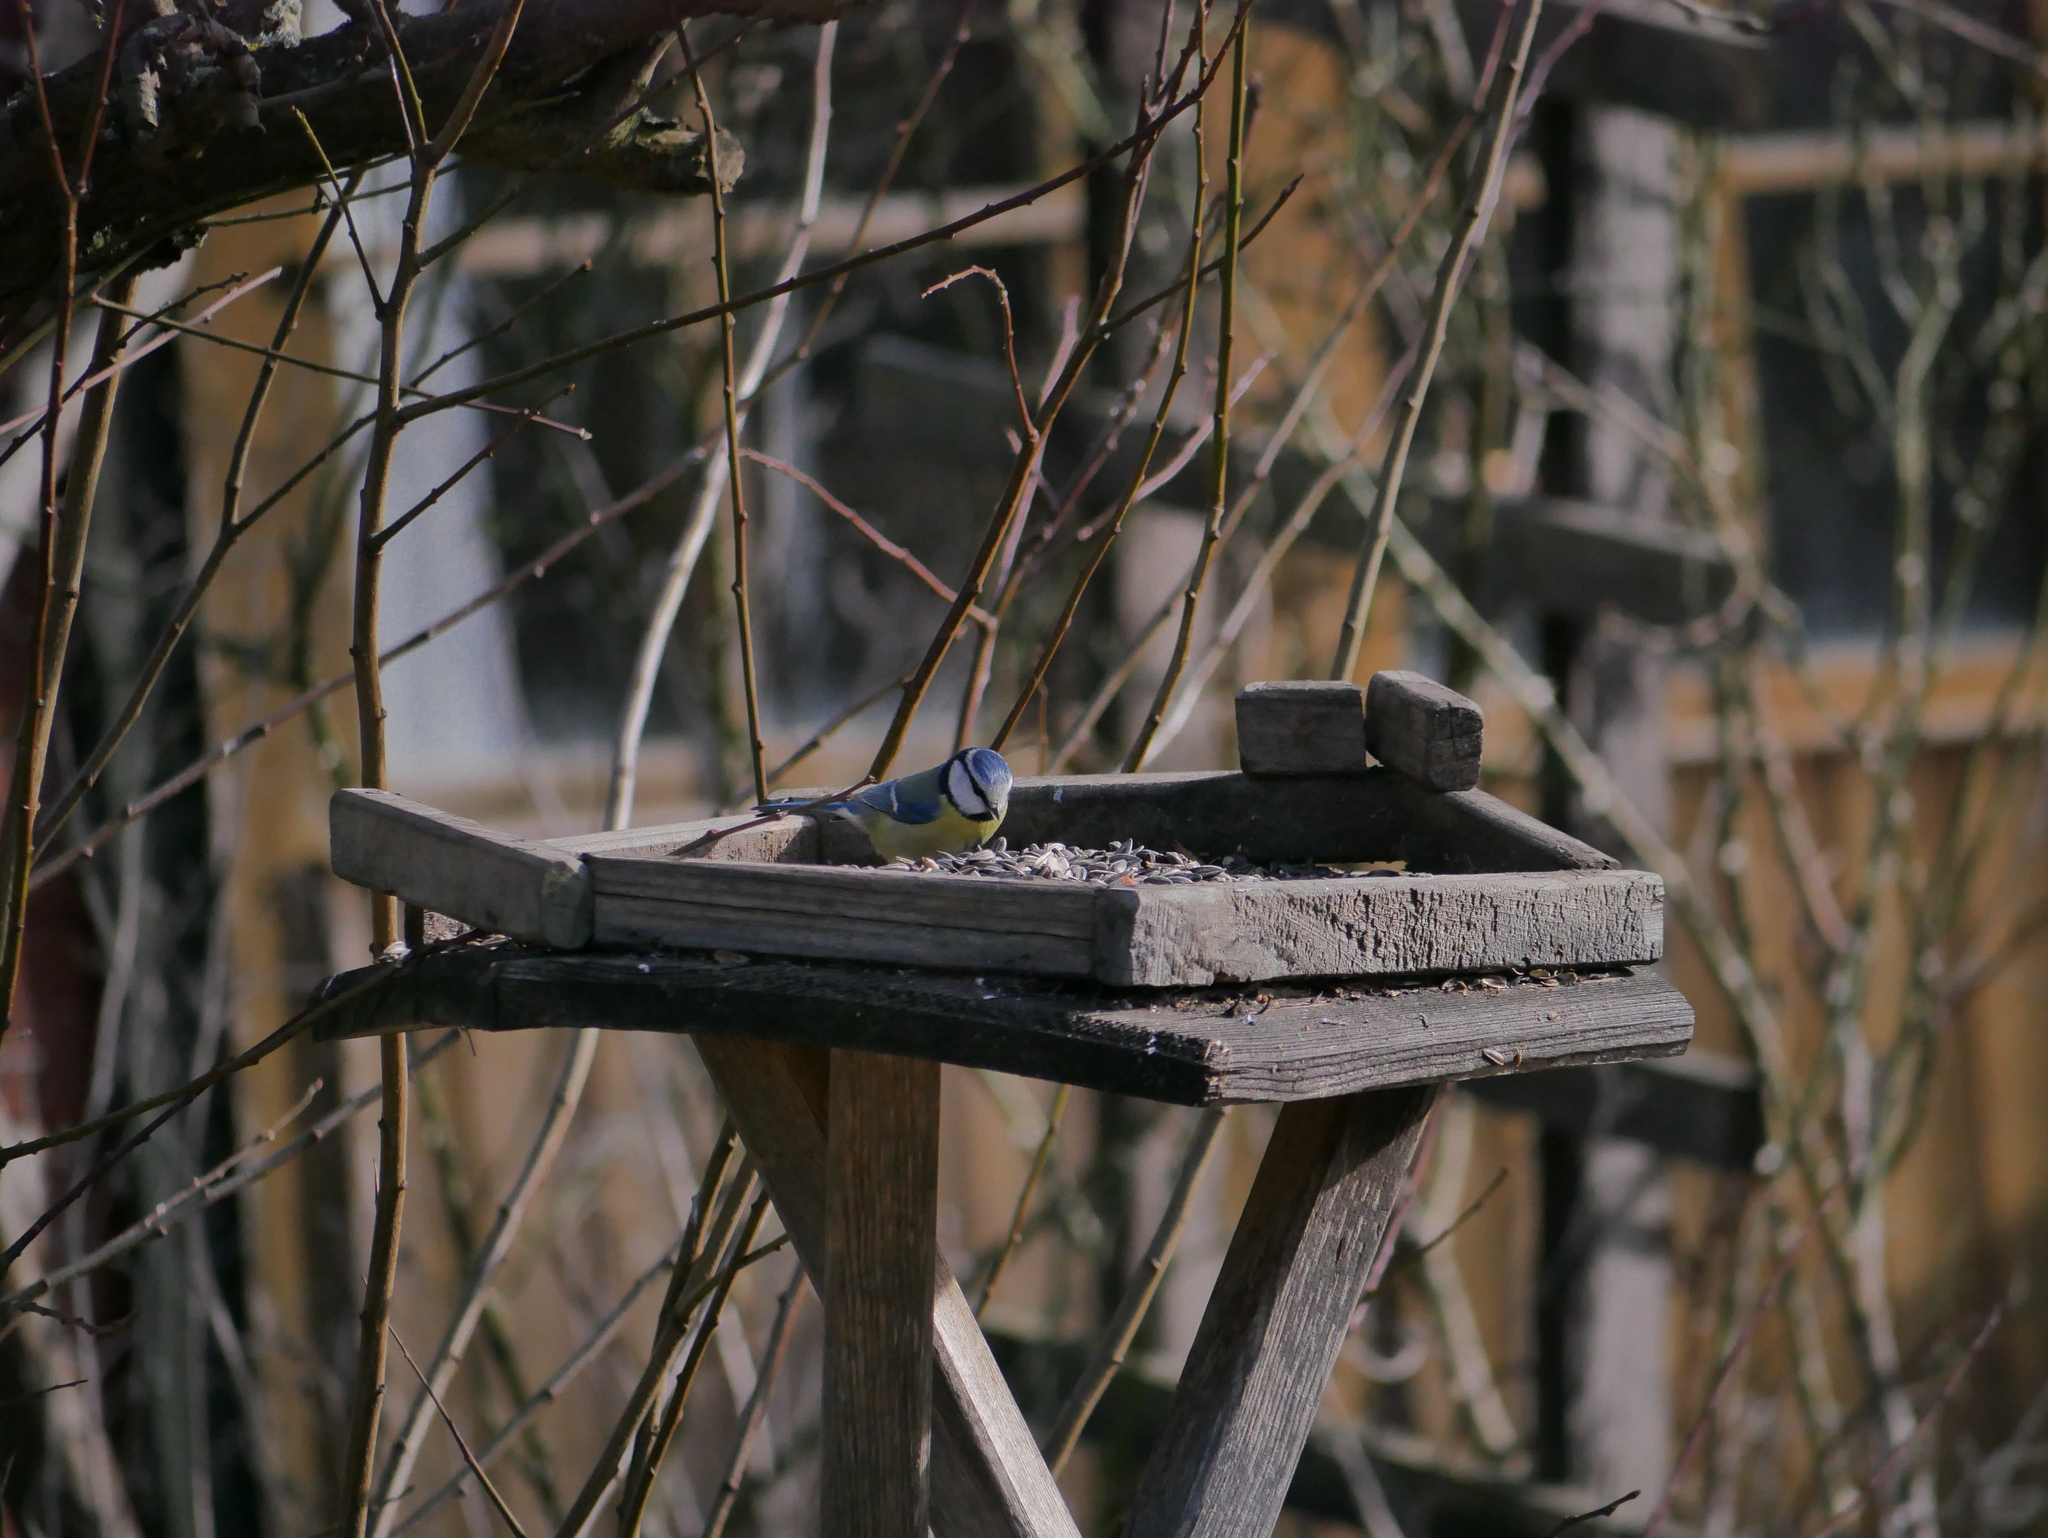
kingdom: Animalia
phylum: Chordata
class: Aves
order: Passeriformes
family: Paridae
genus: Cyanistes
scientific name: Cyanistes caeruleus
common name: Eurasian blue tit
